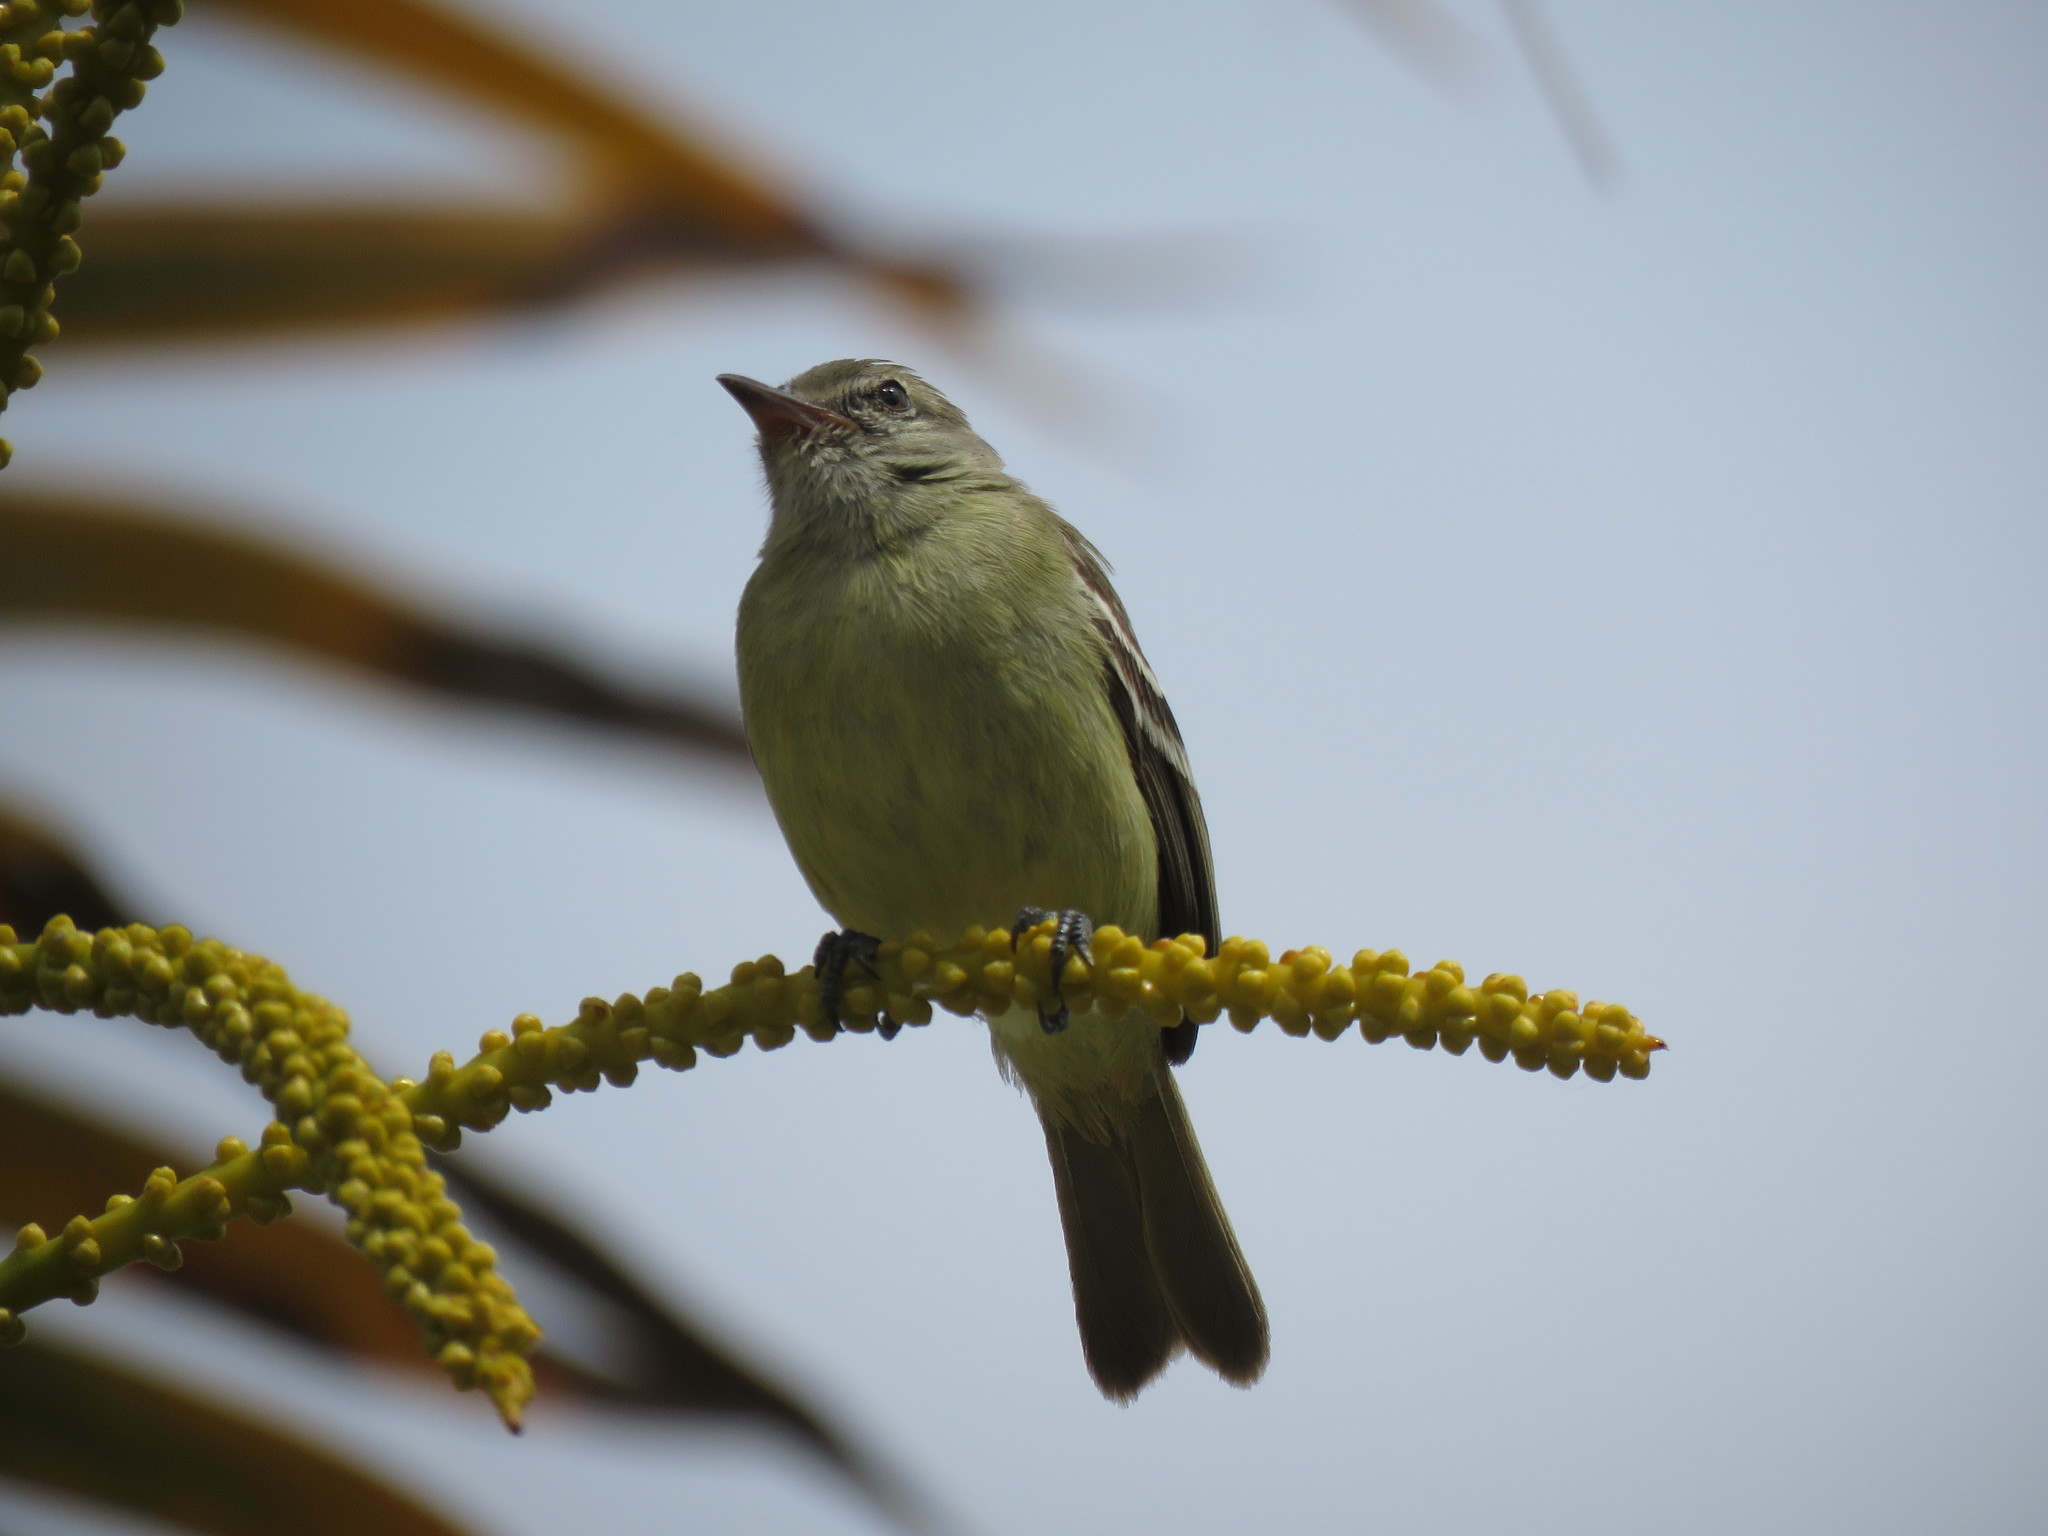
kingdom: Animalia
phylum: Chordata
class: Aves
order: Passeriformes
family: Tyrannidae
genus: Phaeomyias
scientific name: Phaeomyias murina
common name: Mouse-colored tyrannulet
